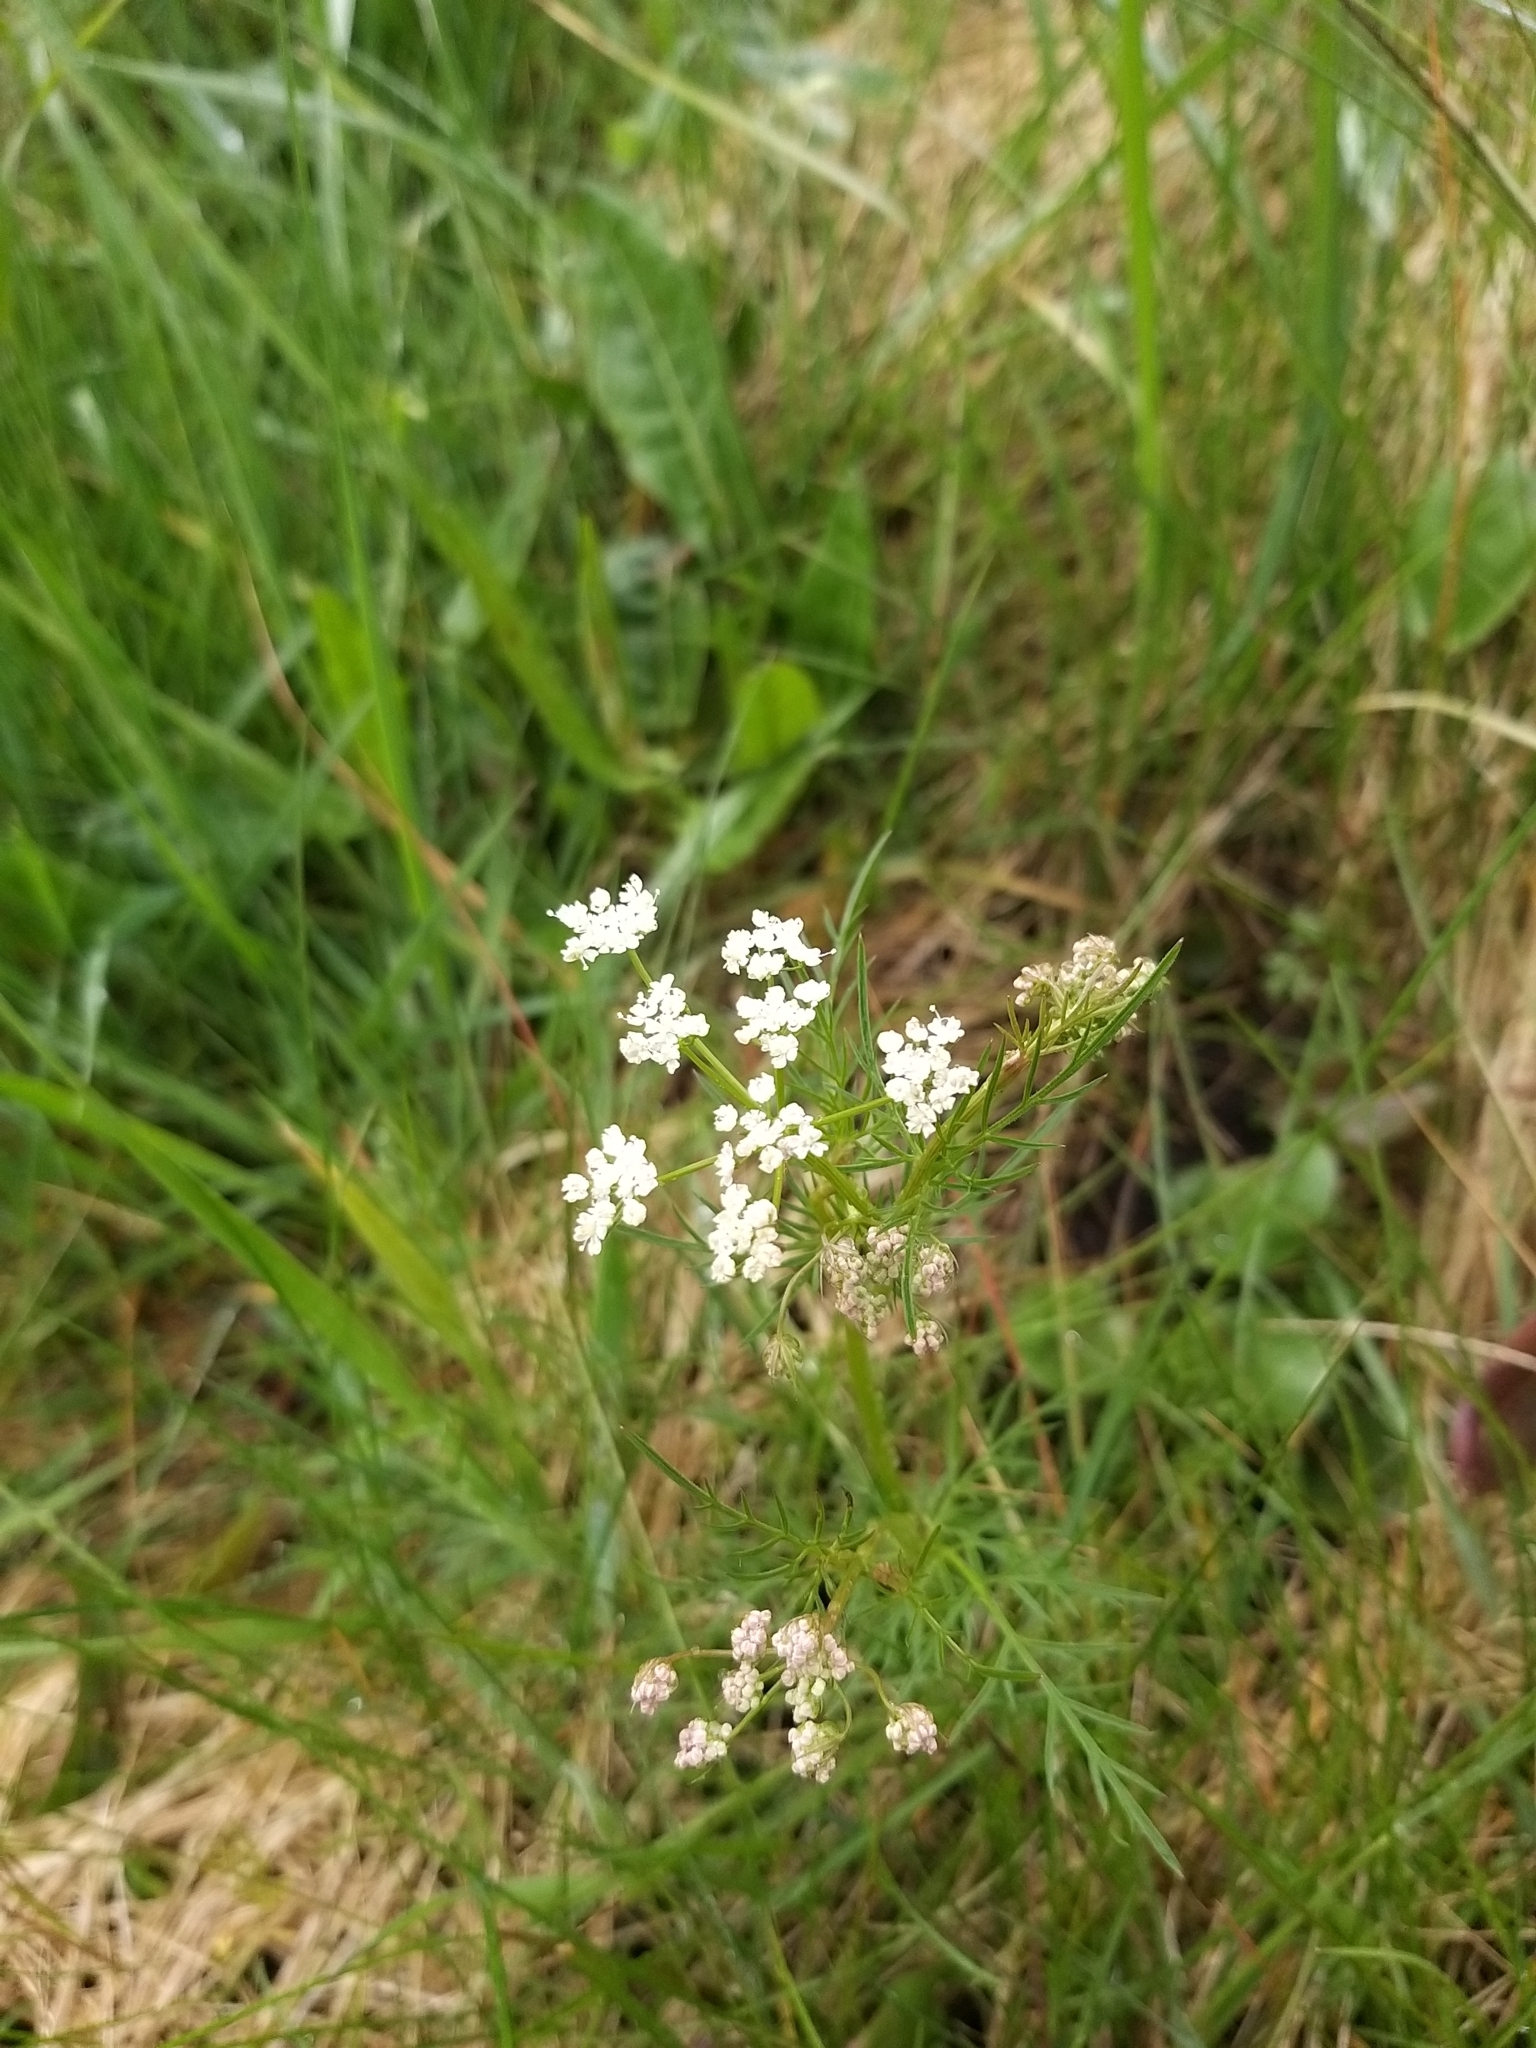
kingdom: Plantae
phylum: Tracheophyta
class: Magnoliopsida
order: Apiales
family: Apiaceae
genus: Conopodium
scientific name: Conopodium majus
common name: Pignut
